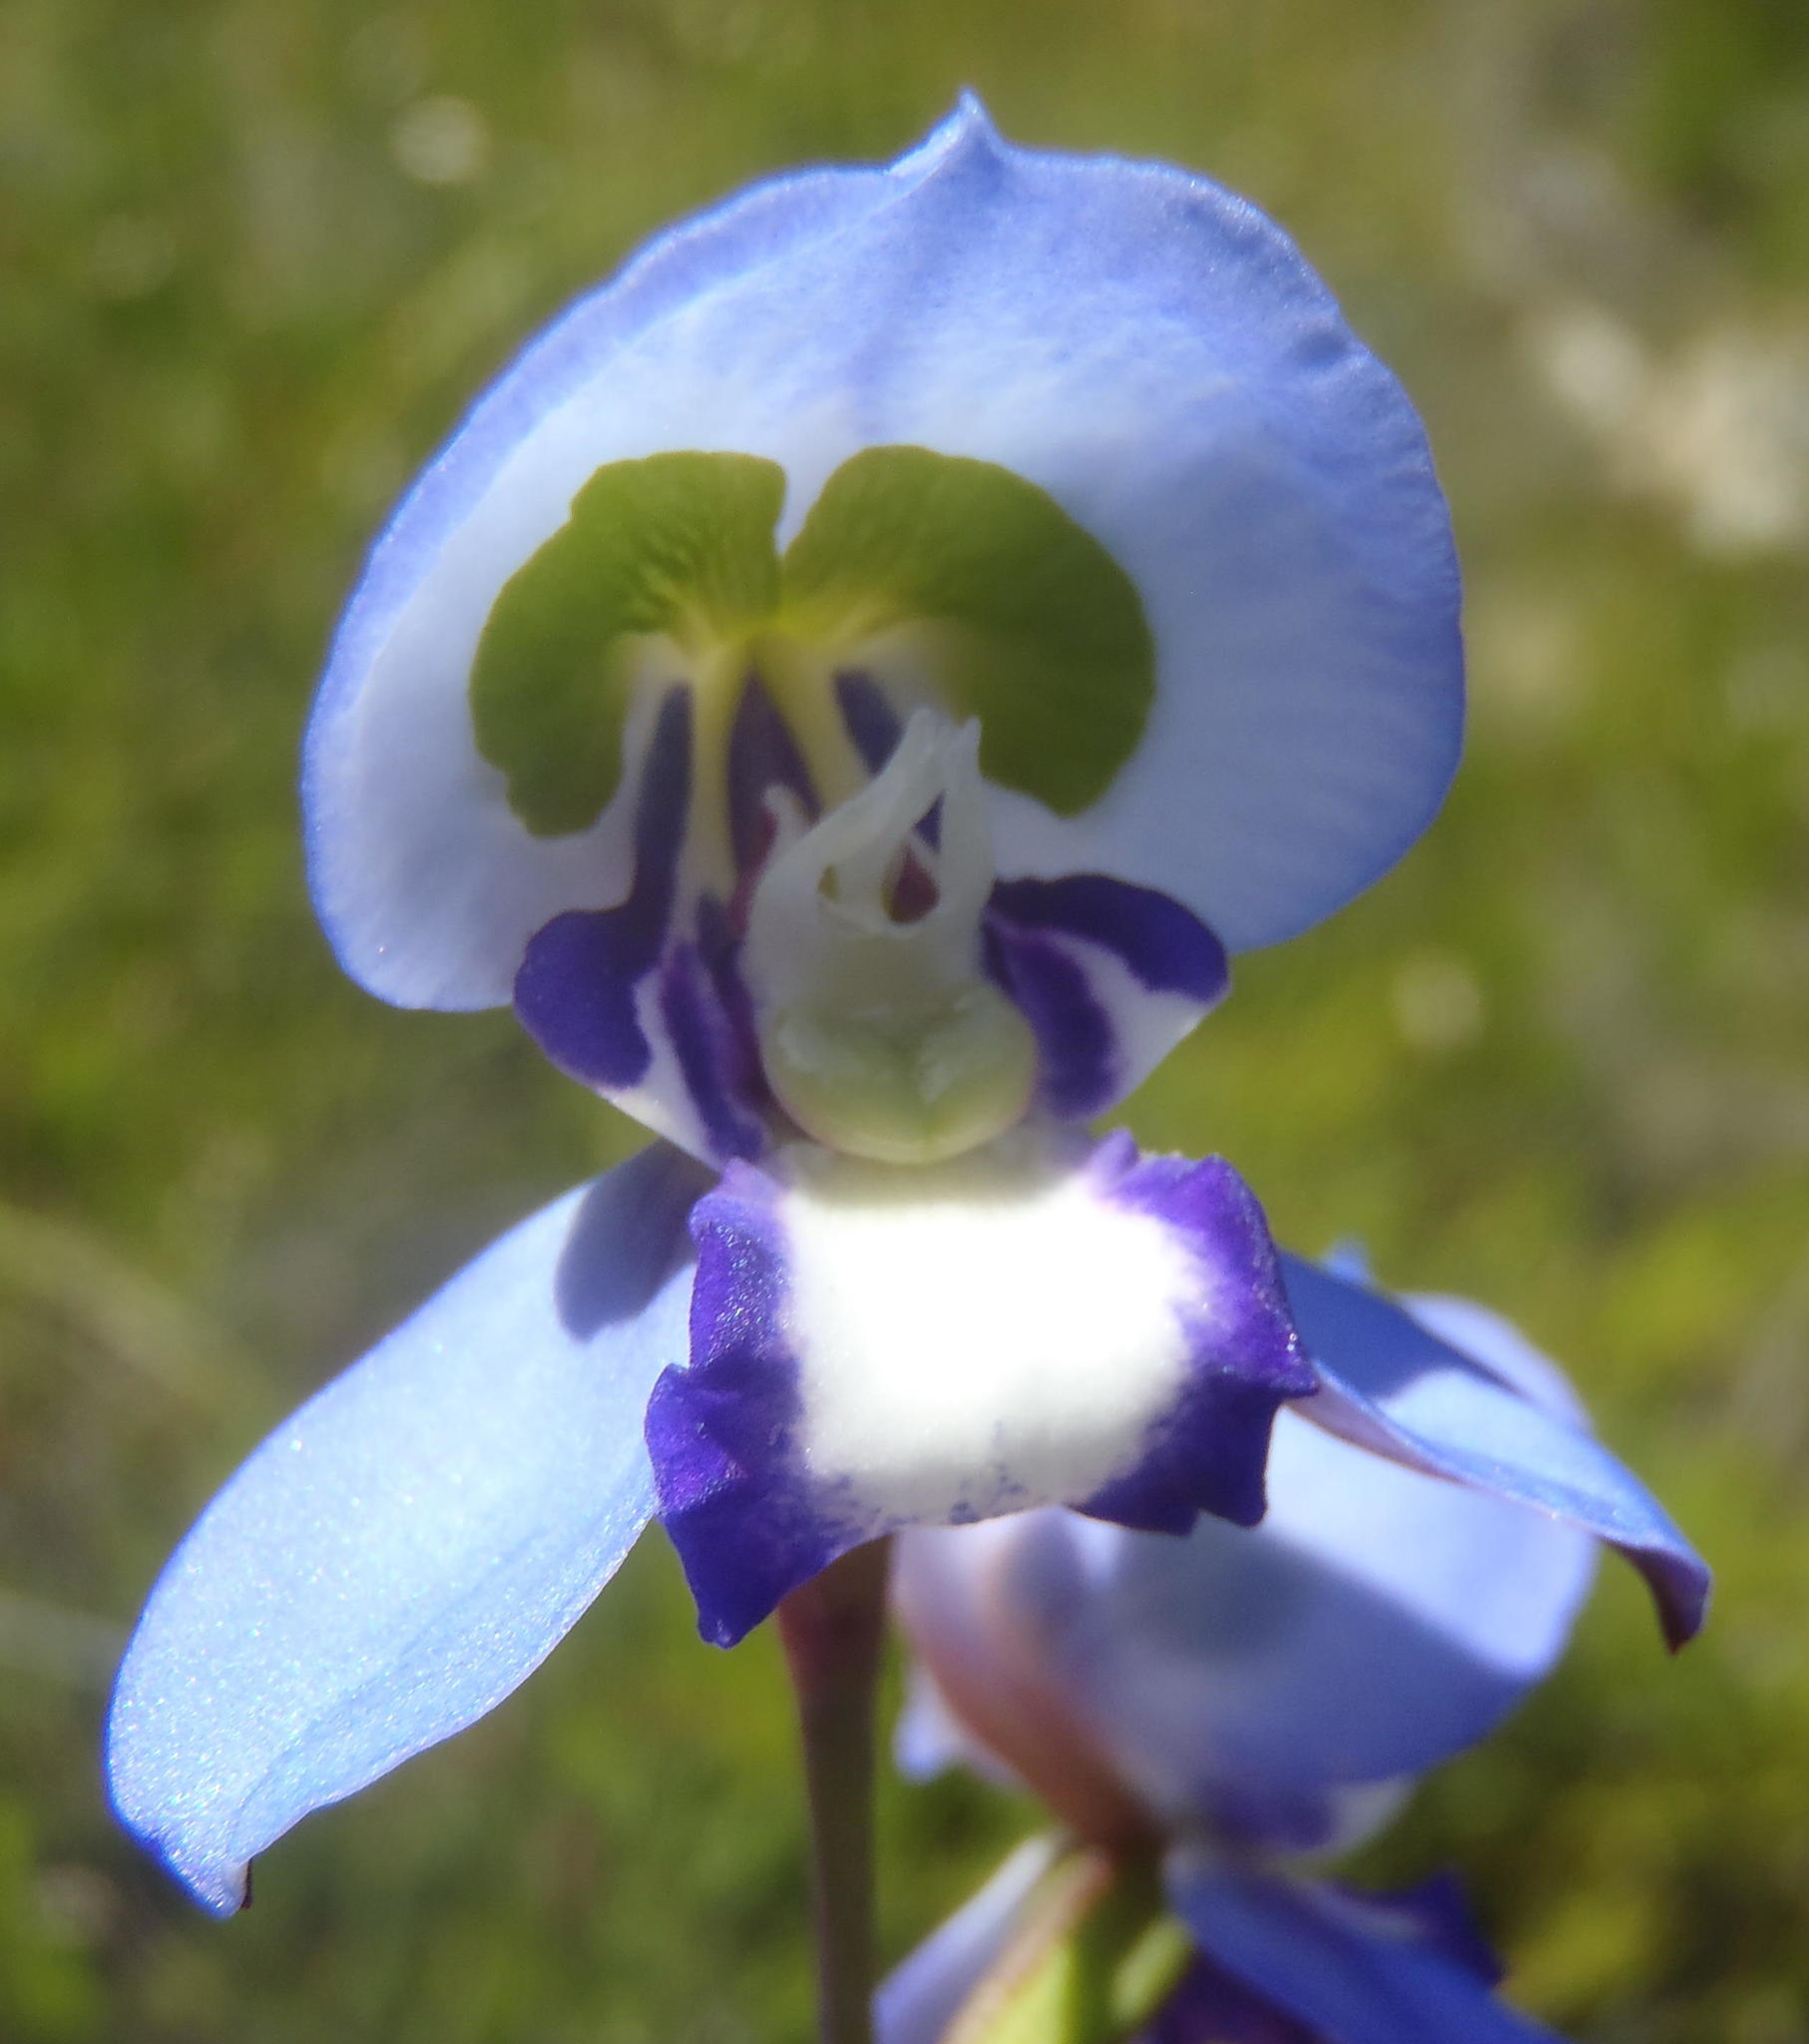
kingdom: Plantae
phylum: Tracheophyta
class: Liliopsida
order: Asparagales
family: Orchidaceae
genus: Disa
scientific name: Disa graminifolia
